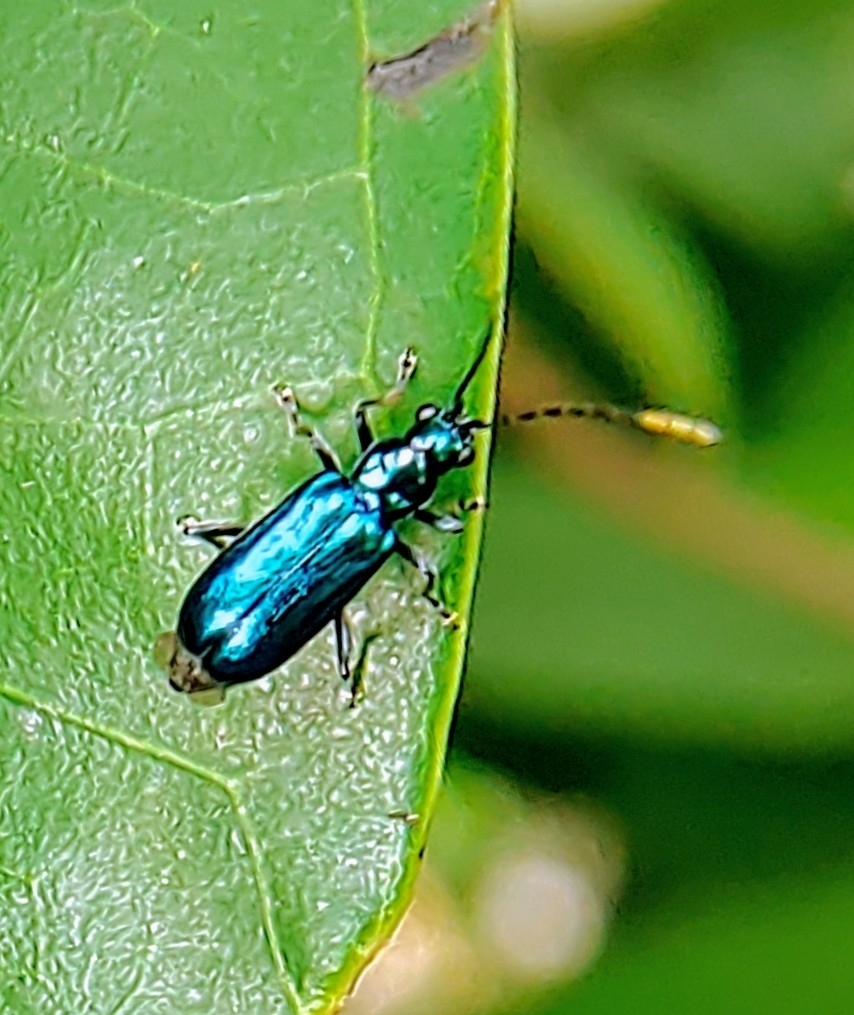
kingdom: Animalia
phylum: Arthropoda
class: Insecta
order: Coleoptera
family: Chrysomelidae
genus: Hoplosaenidea
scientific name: Hoplosaenidea
